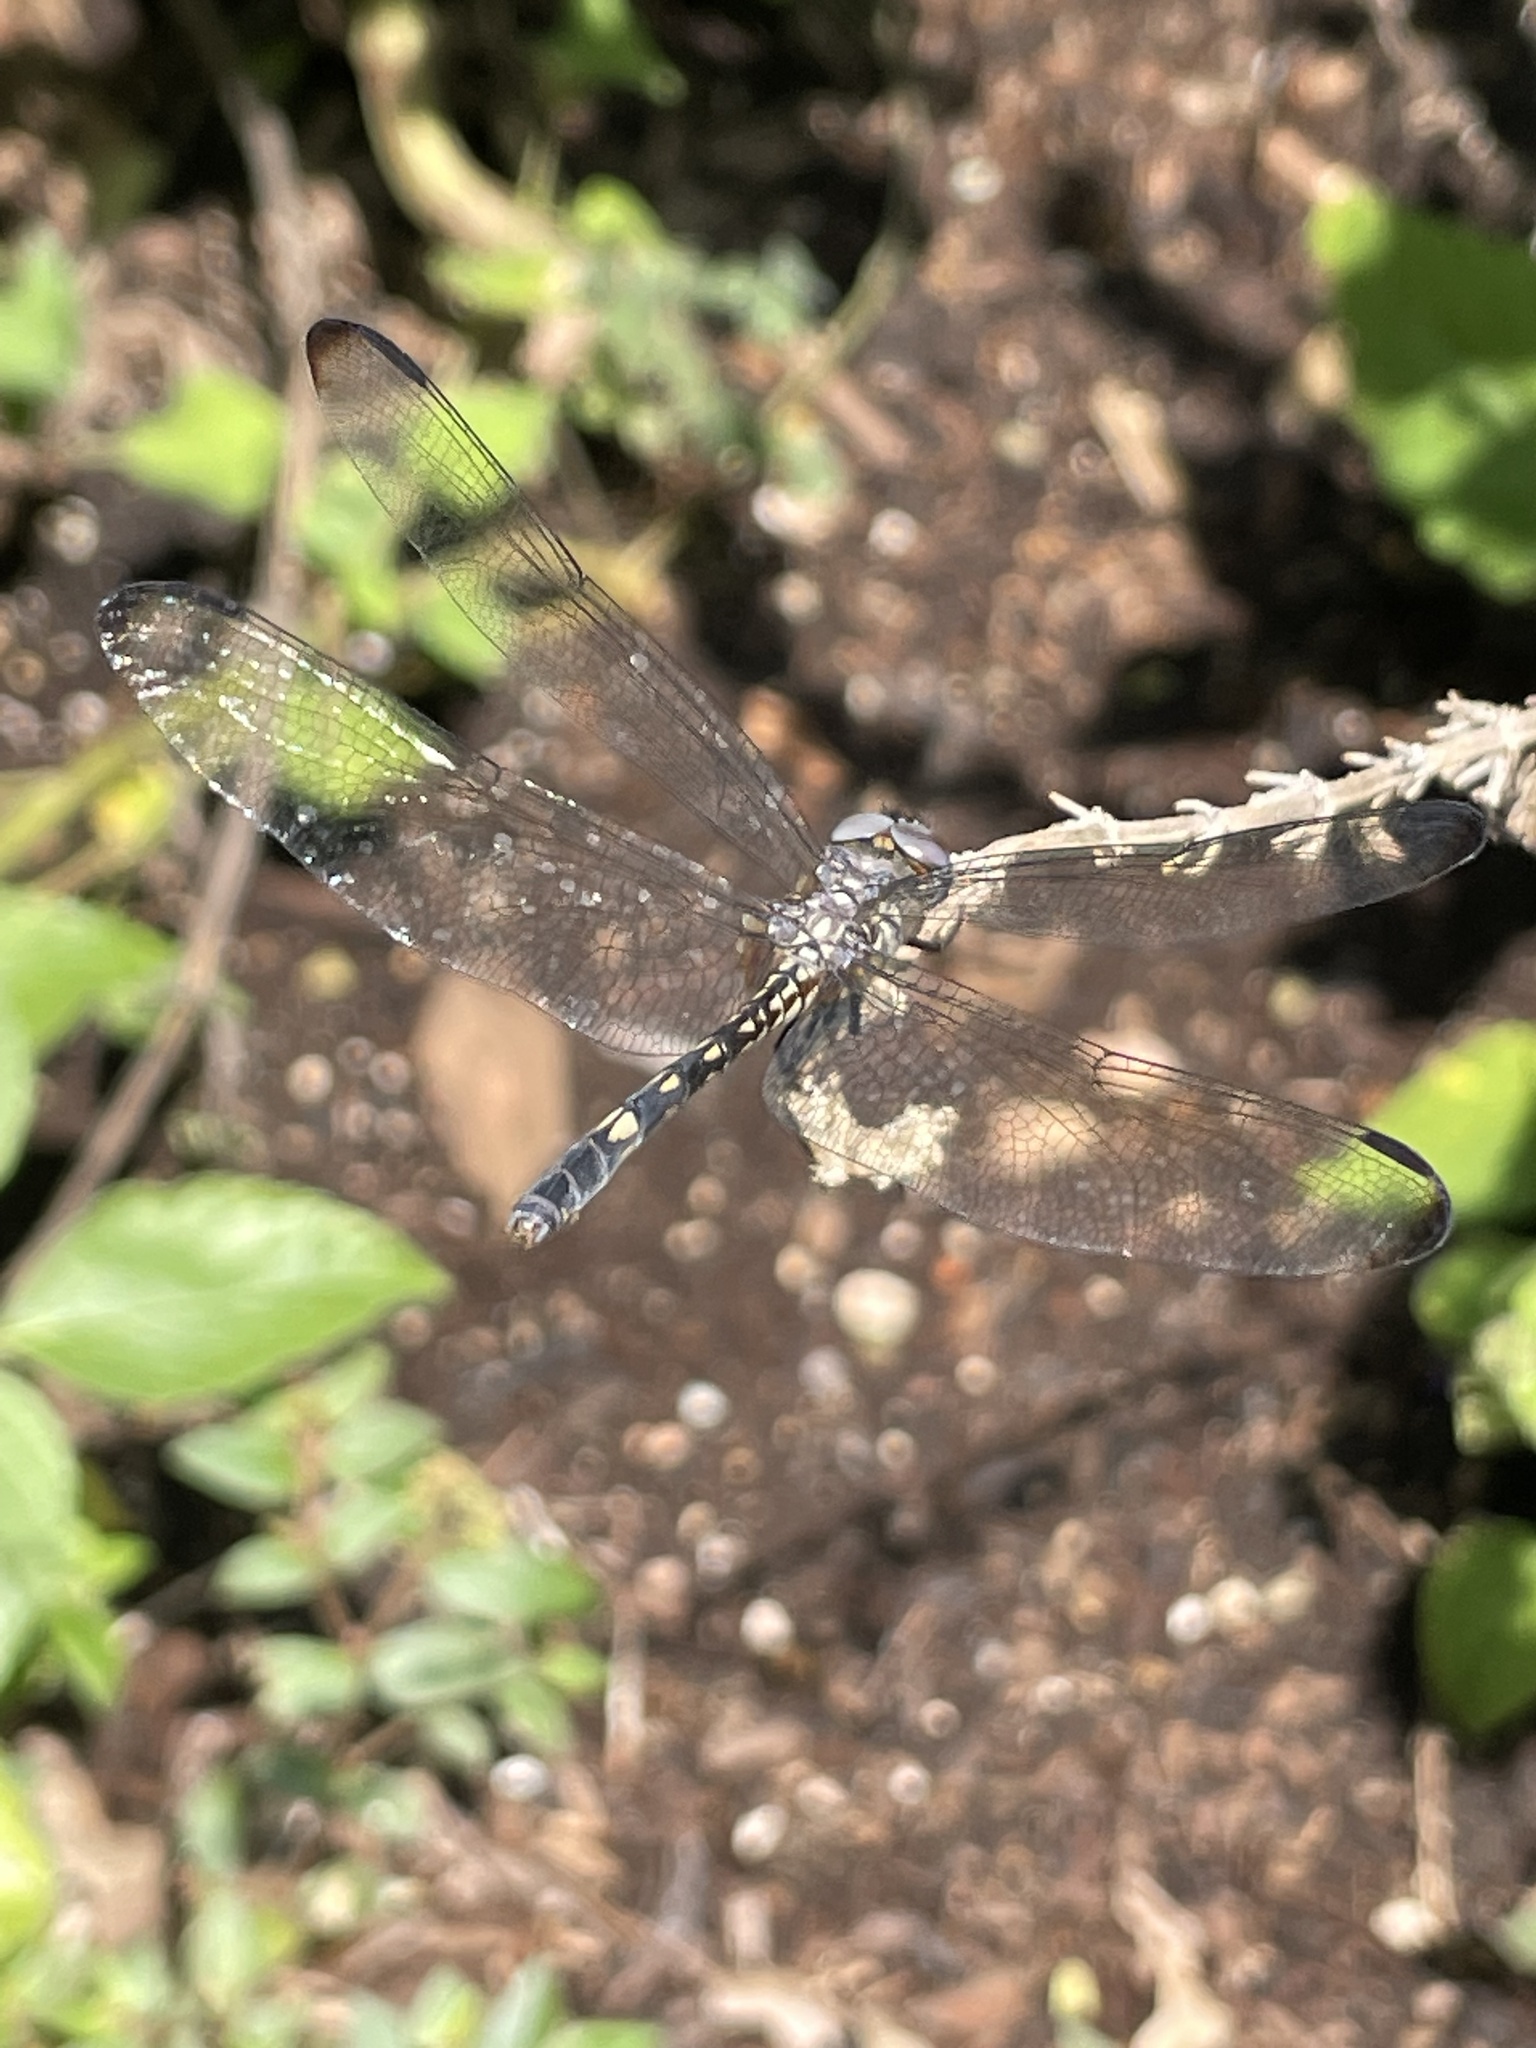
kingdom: Animalia
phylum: Arthropoda
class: Insecta
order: Odonata
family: Libellulidae
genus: Dythemis
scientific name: Dythemis nigrescens
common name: Black setwing
